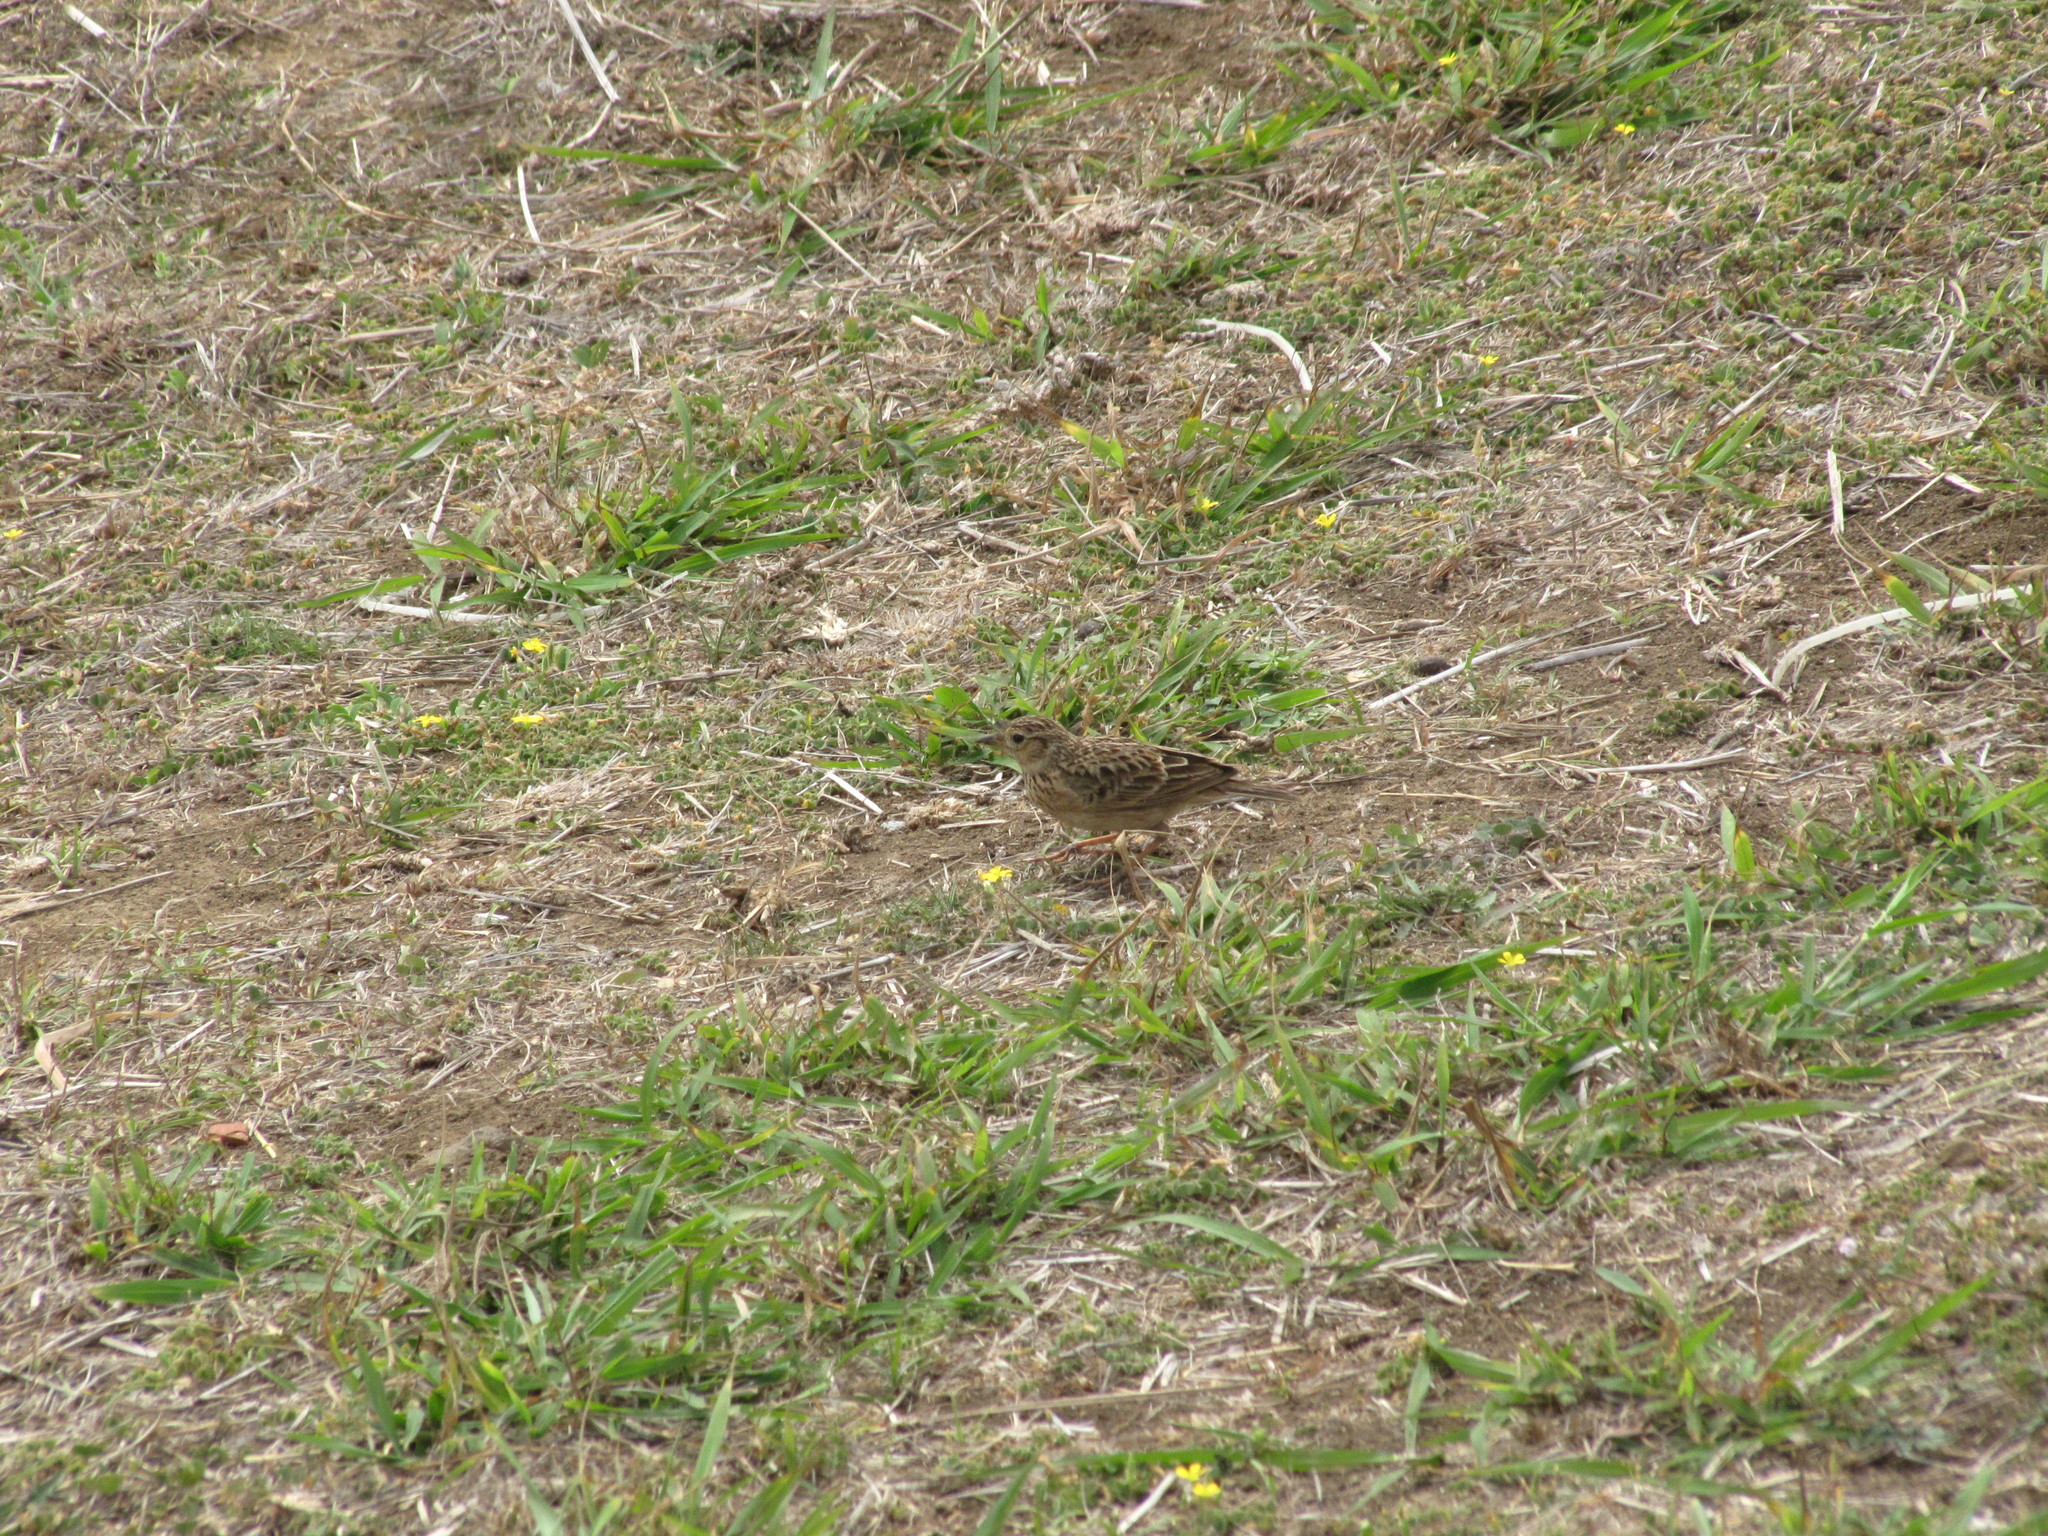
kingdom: Animalia
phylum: Chordata
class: Aves
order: Passeriformes
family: Alaudidae
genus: Alauda
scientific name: Alauda gulgula
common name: Oriental skylark
